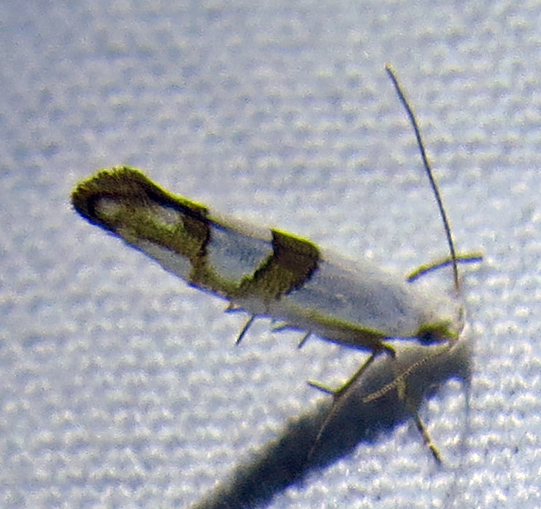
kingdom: Animalia
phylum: Arthropoda
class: Insecta
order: Lepidoptera
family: Argyresthiidae
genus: Argyresthia
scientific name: Argyresthia oreasella
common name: Cherry shoot borer moth
